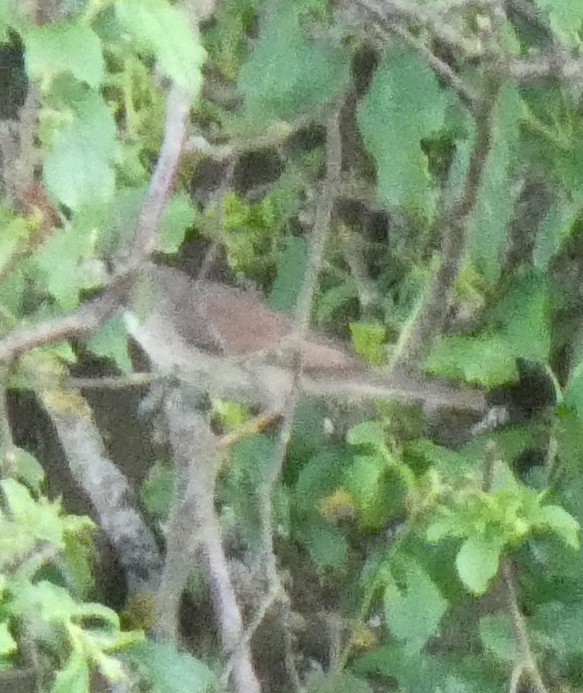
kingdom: Animalia
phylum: Chordata
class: Aves
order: Passeriformes
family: Sylviidae
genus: Sylvia
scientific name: Sylvia communis
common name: Common whitethroat
